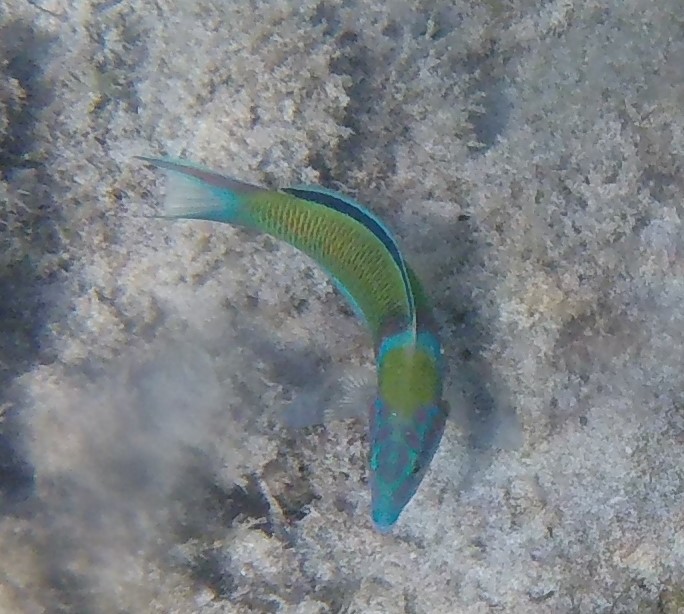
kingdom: Animalia
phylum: Chordata
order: Perciformes
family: Labridae
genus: Thalassoma
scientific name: Thalassoma pavo
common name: Ornate wrasse
